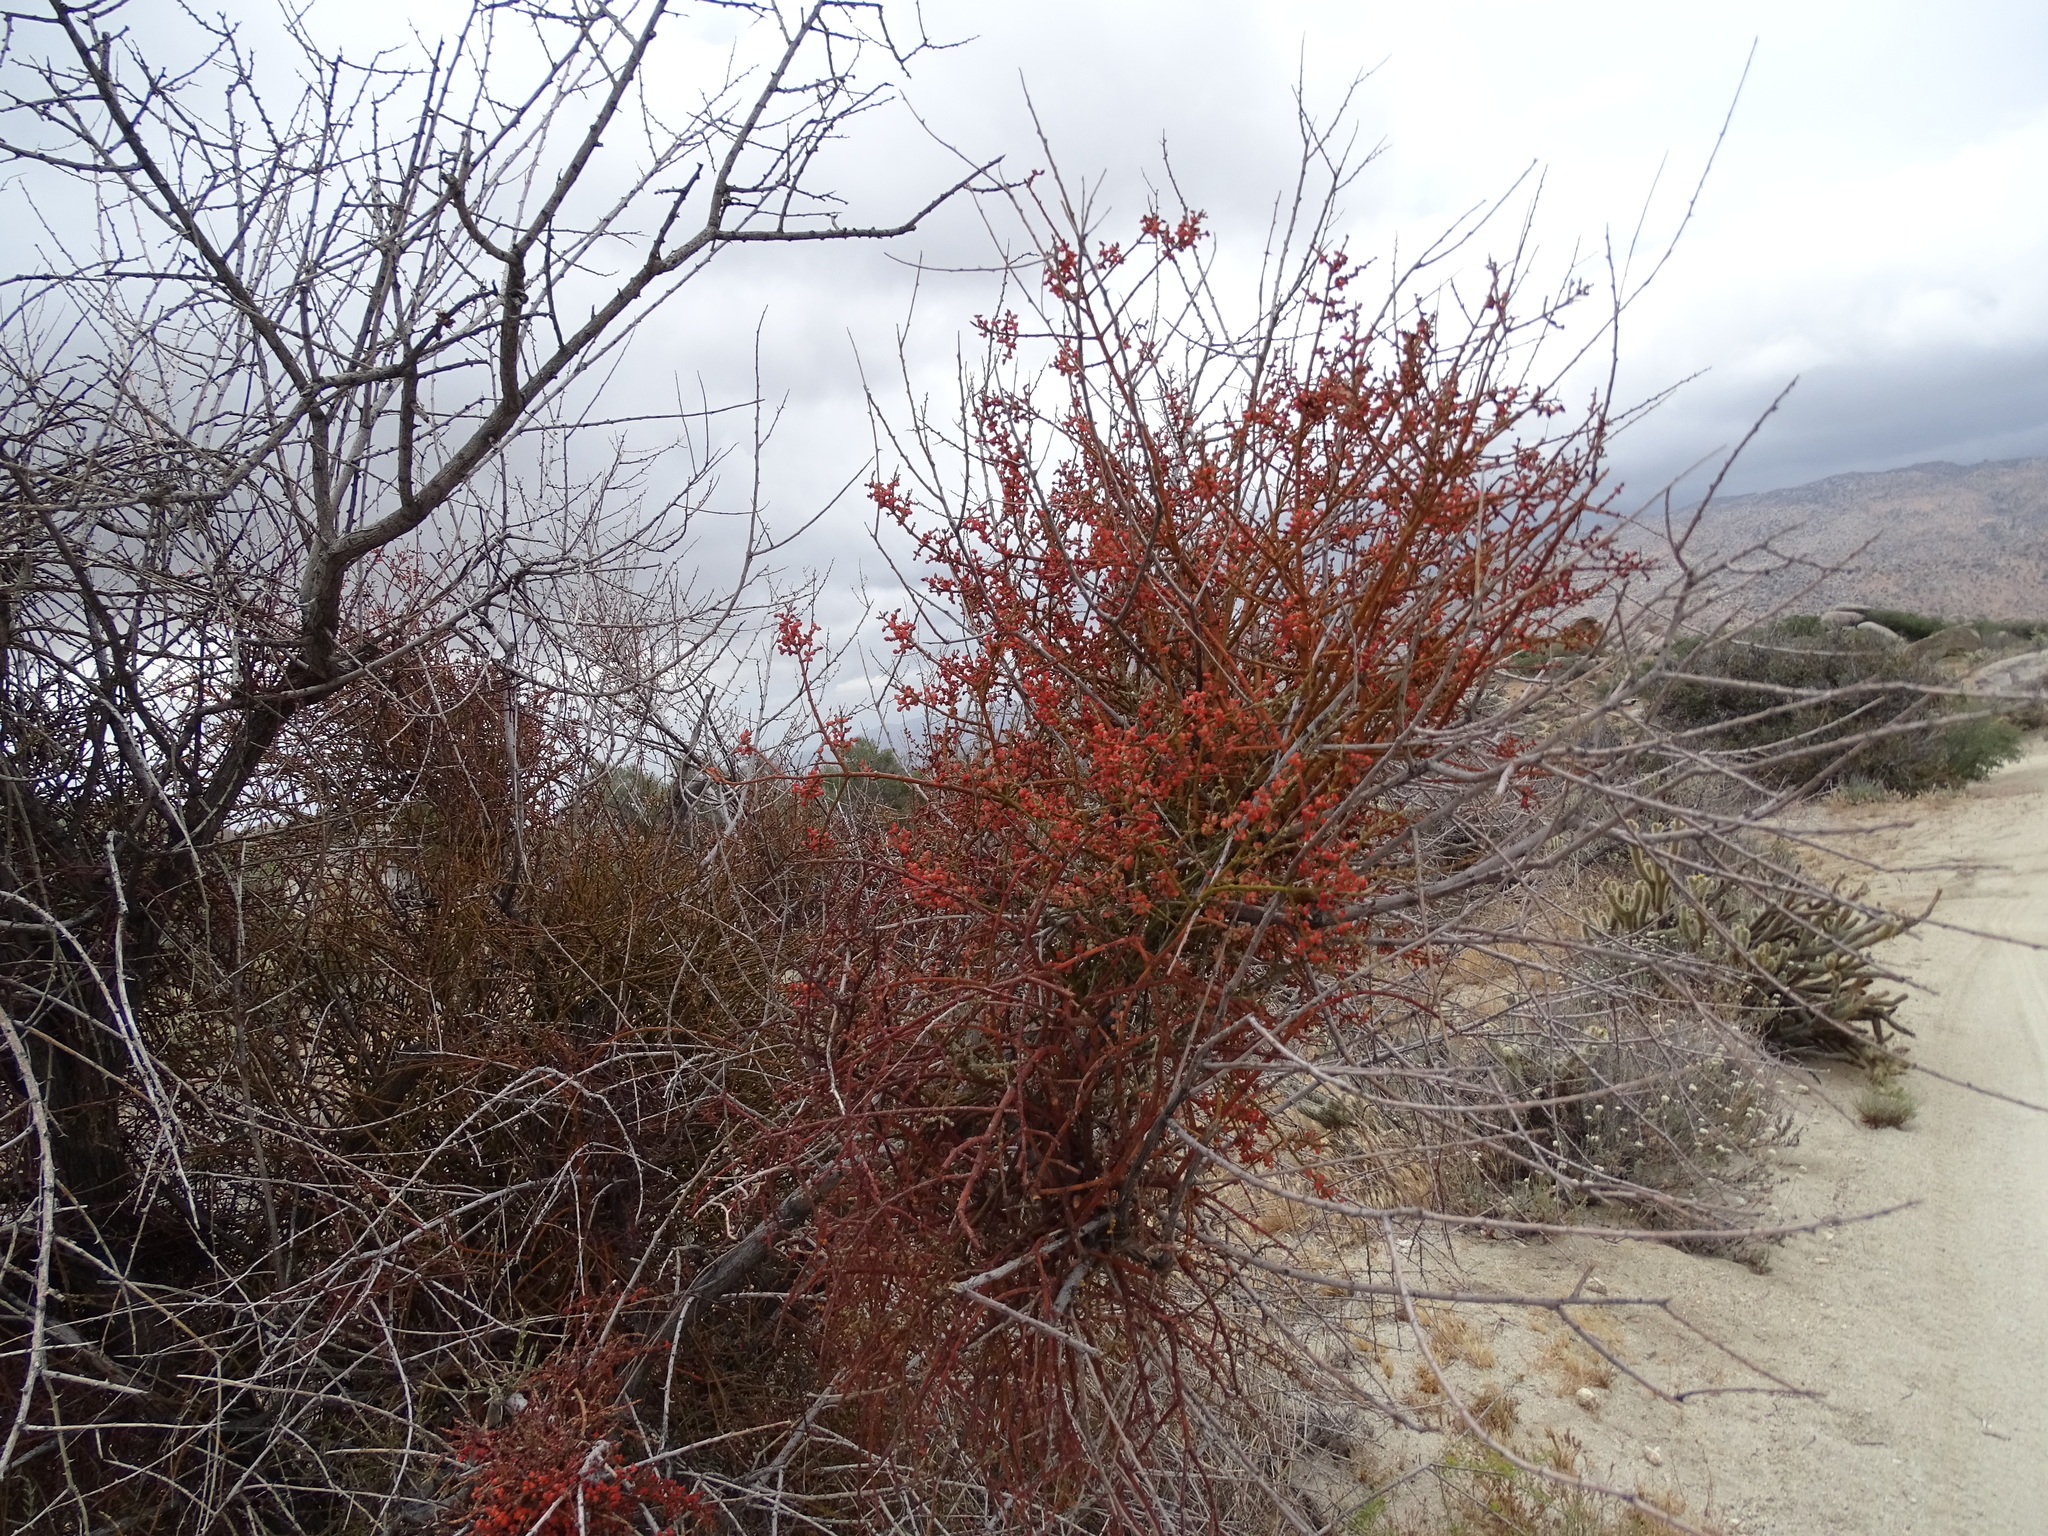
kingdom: Plantae
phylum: Tracheophyta
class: Magnoliopsida
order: Santalales
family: Viscaceae
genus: Phoradendron
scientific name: Phoradendron californicum
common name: Acacia mistletoe
